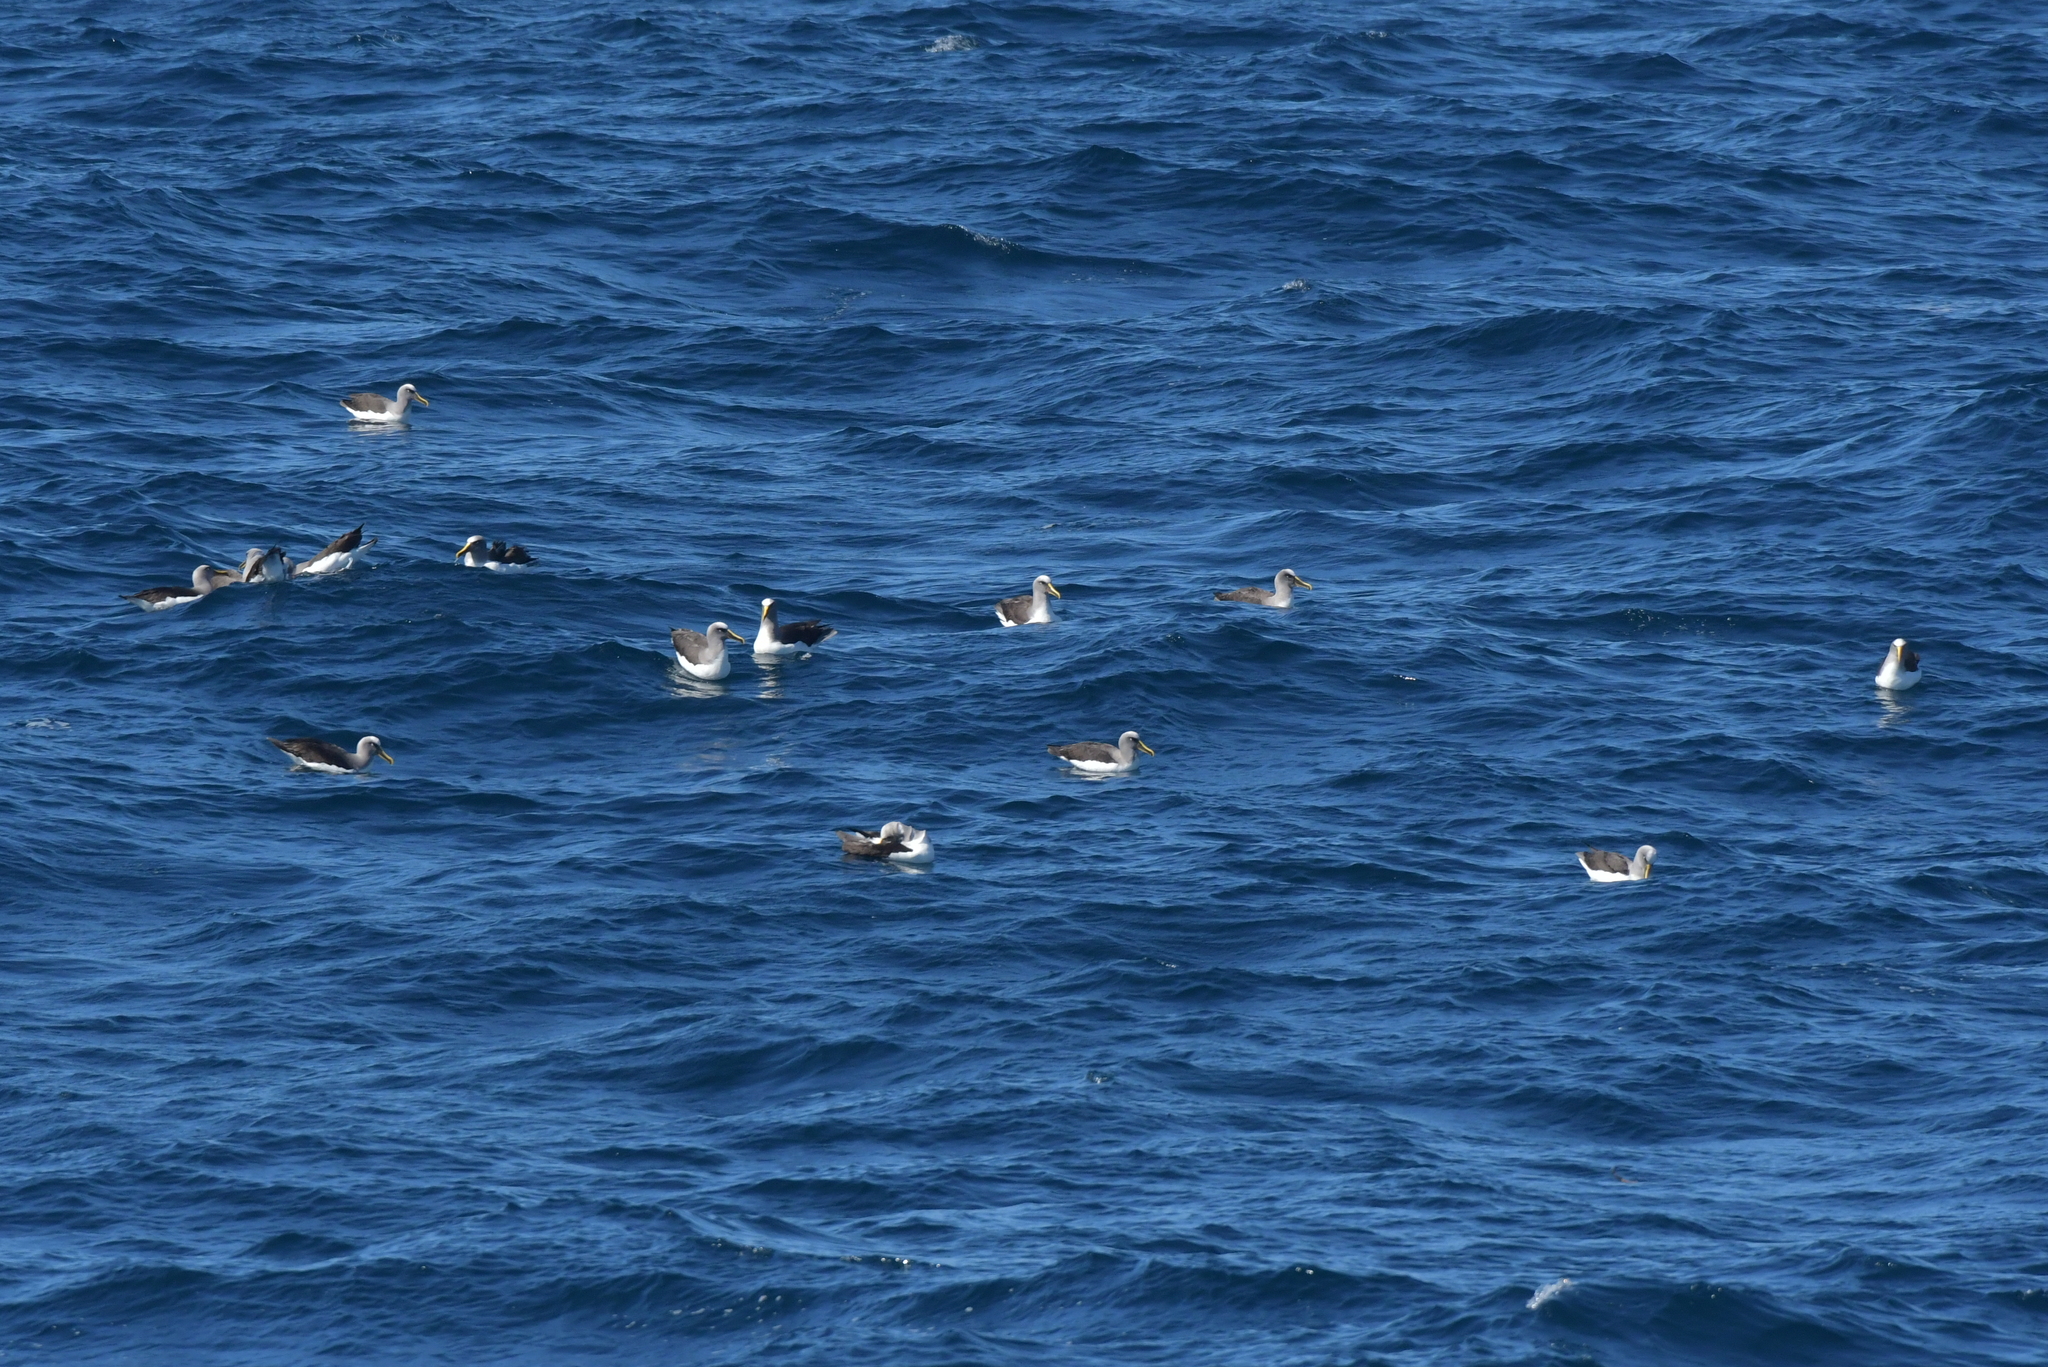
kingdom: Animalia
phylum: Chordata
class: Aves
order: Procellariiformes
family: Diomedeidae
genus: Thalassarche
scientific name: Thalassarche bulleri
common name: Buller's albatross
